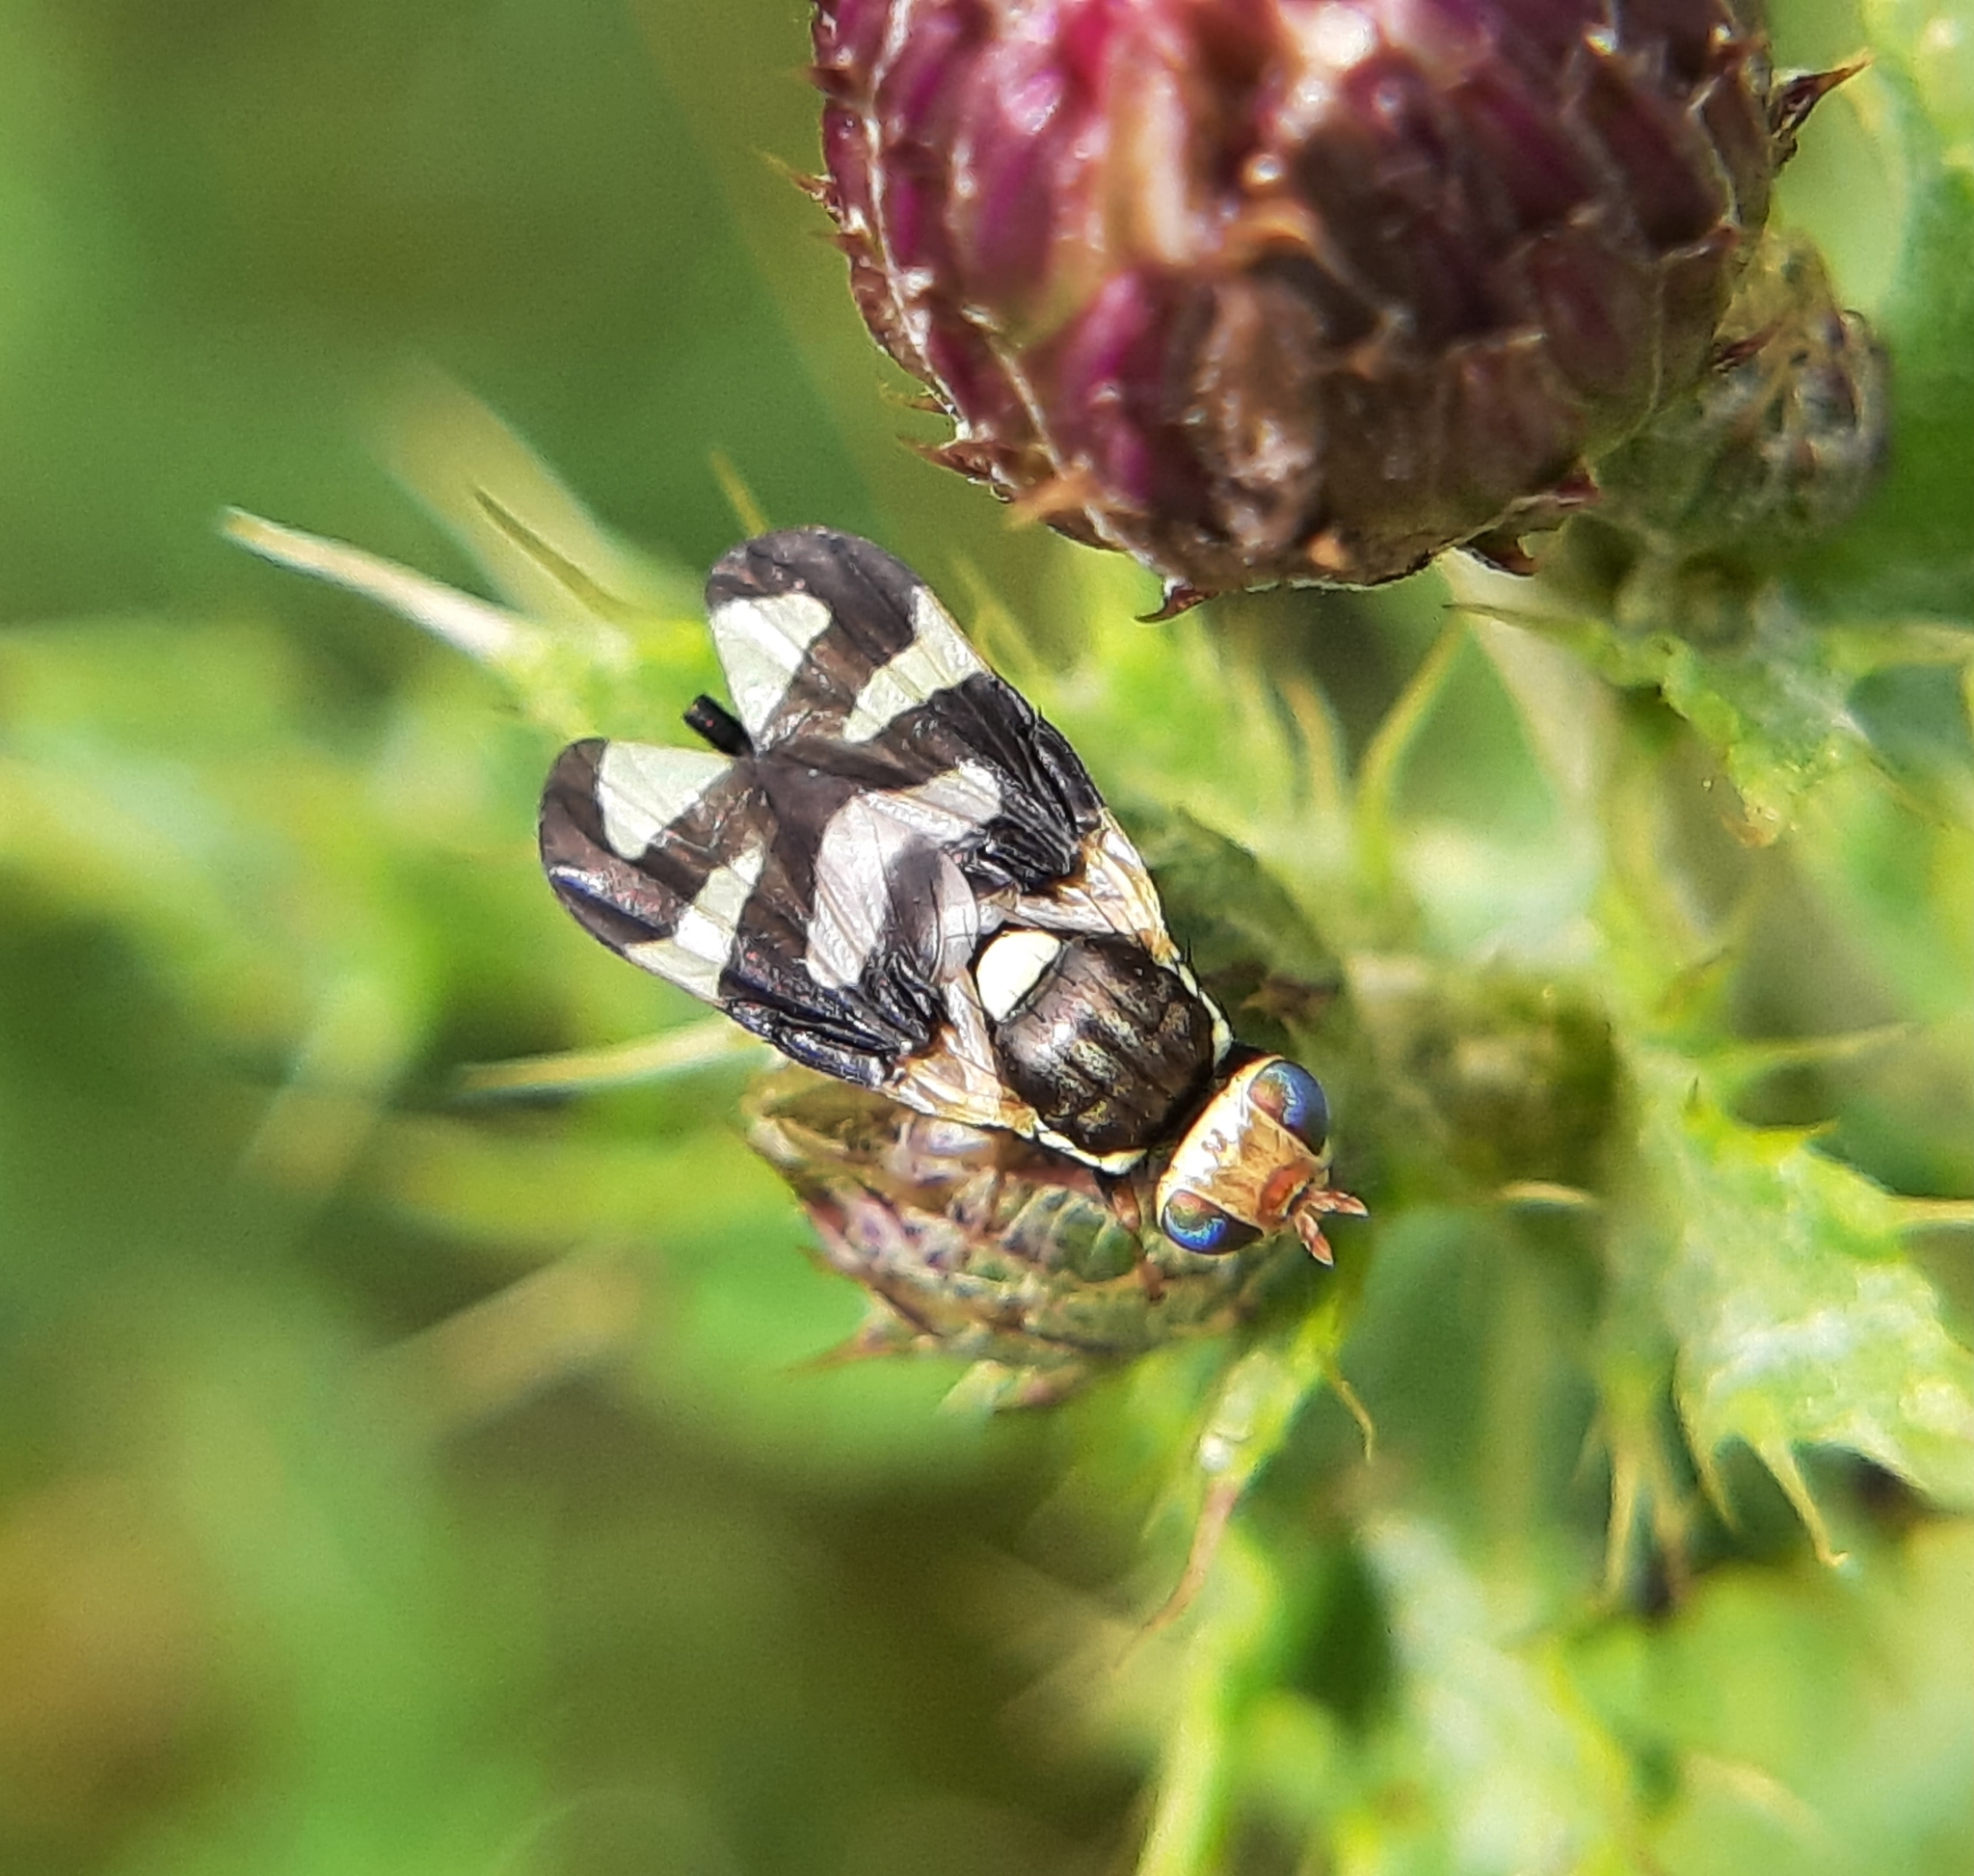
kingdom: Animalia
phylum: Arthropoda
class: Insecta
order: Diptera
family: Tephritidae
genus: Urophora
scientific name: Urophora cardui
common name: Fruit fly
